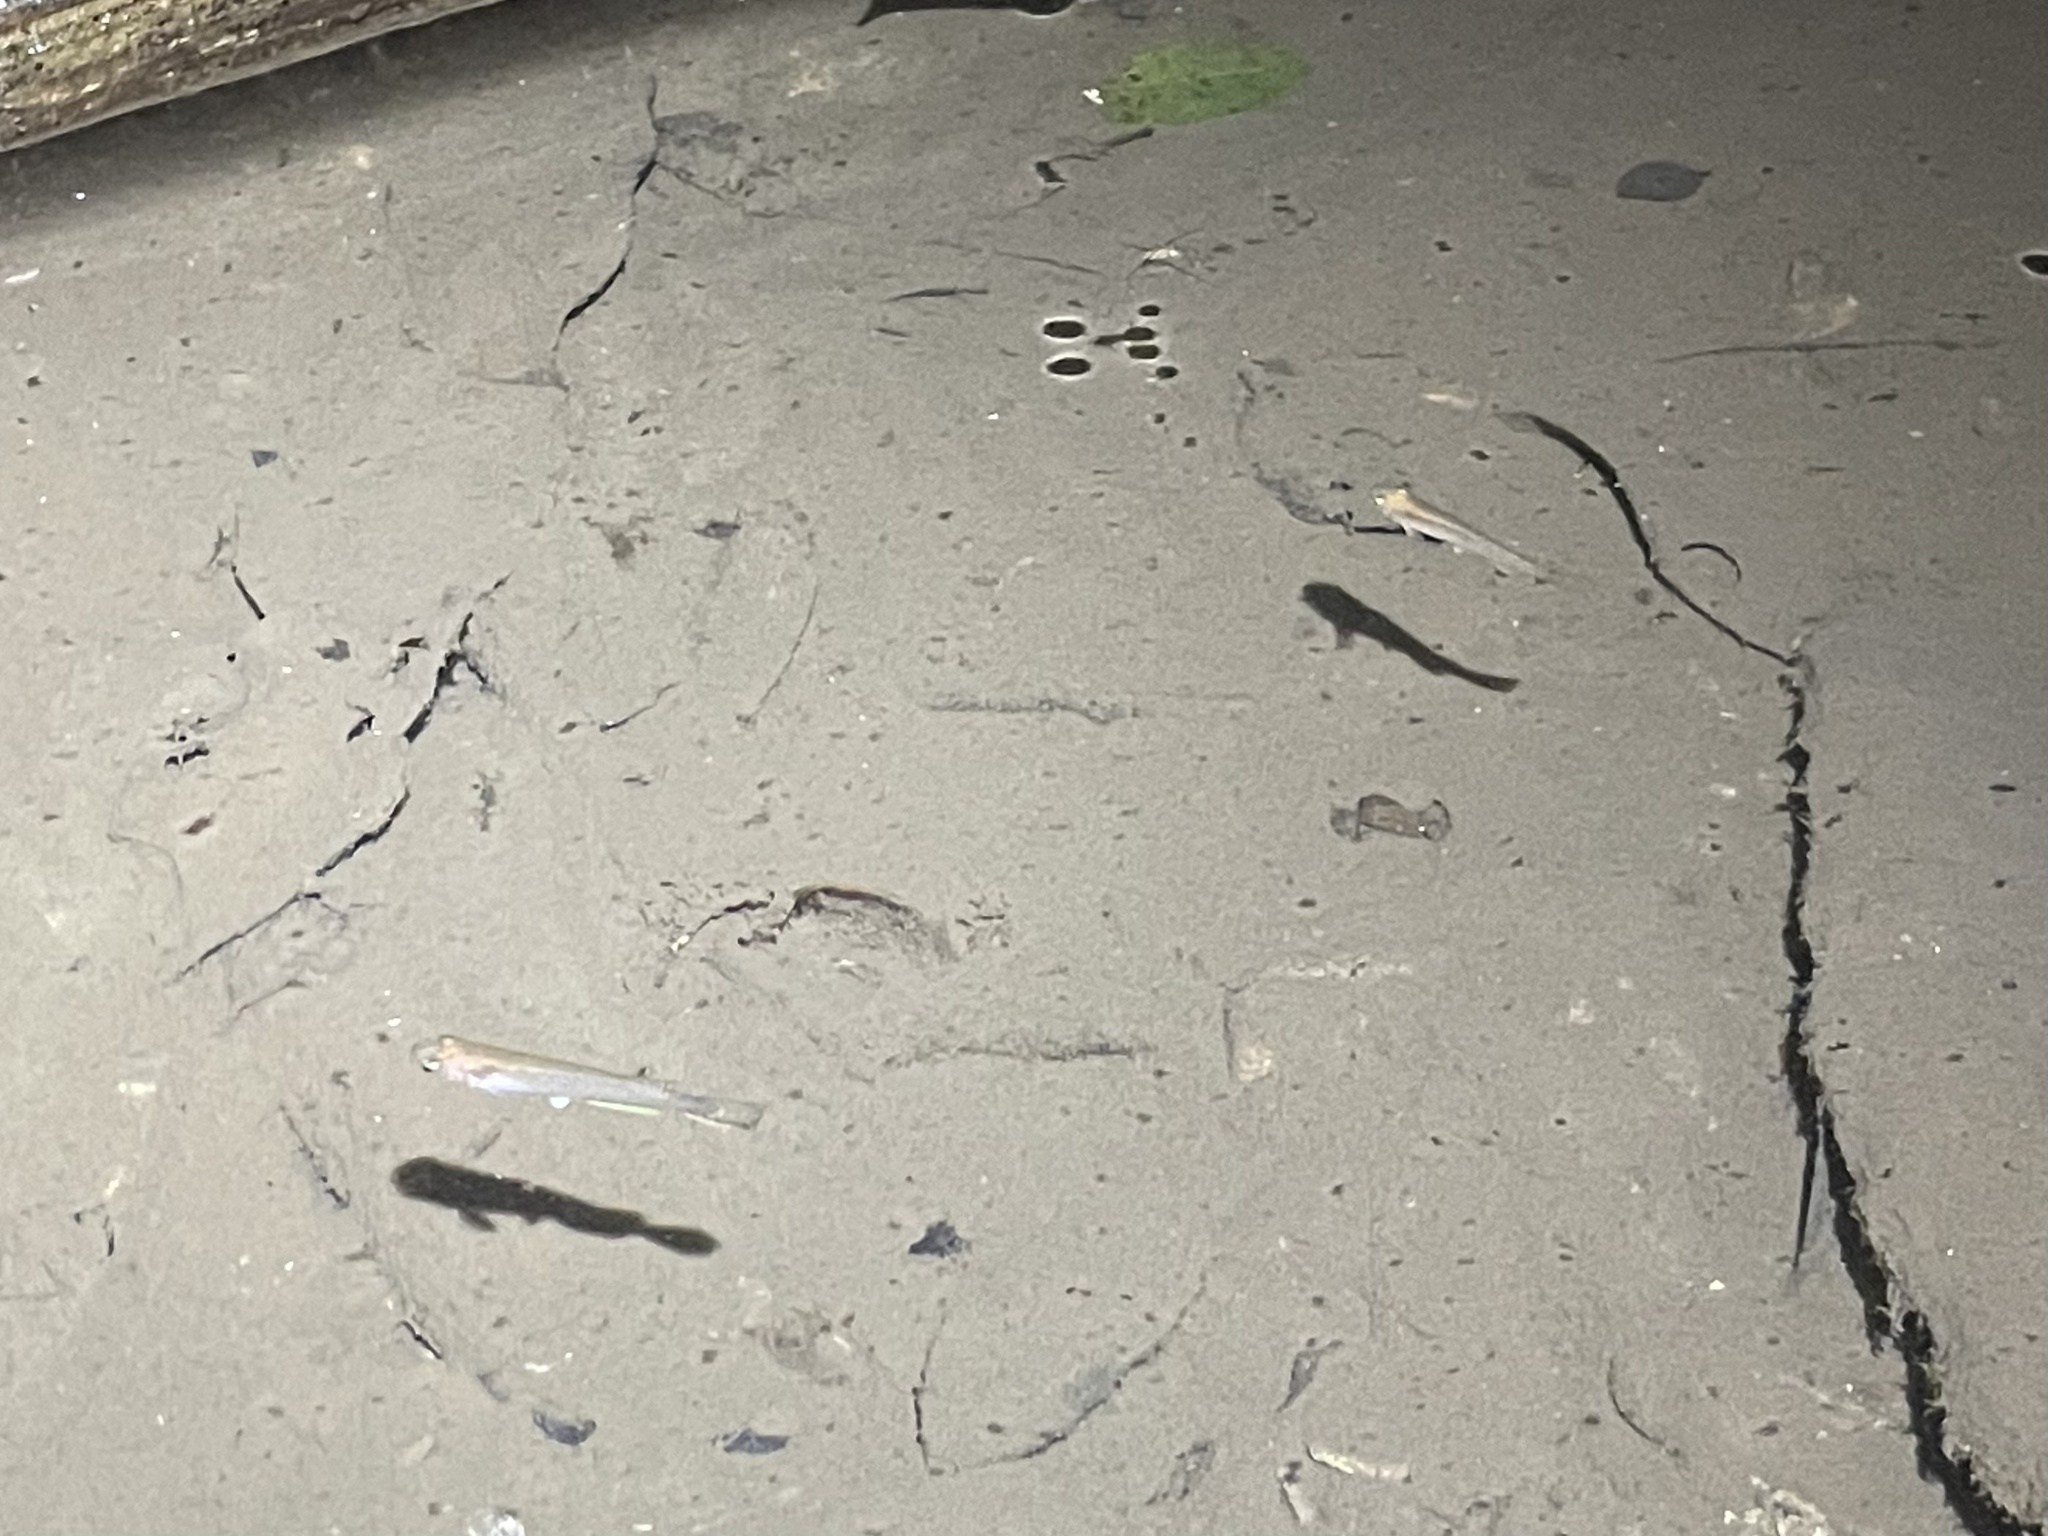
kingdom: Animalia
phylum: Chordata
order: Cyprinodontiformes
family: Rivulidae
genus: Anablepsoides
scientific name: Anablepsoides hartii
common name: Giant rivulus
